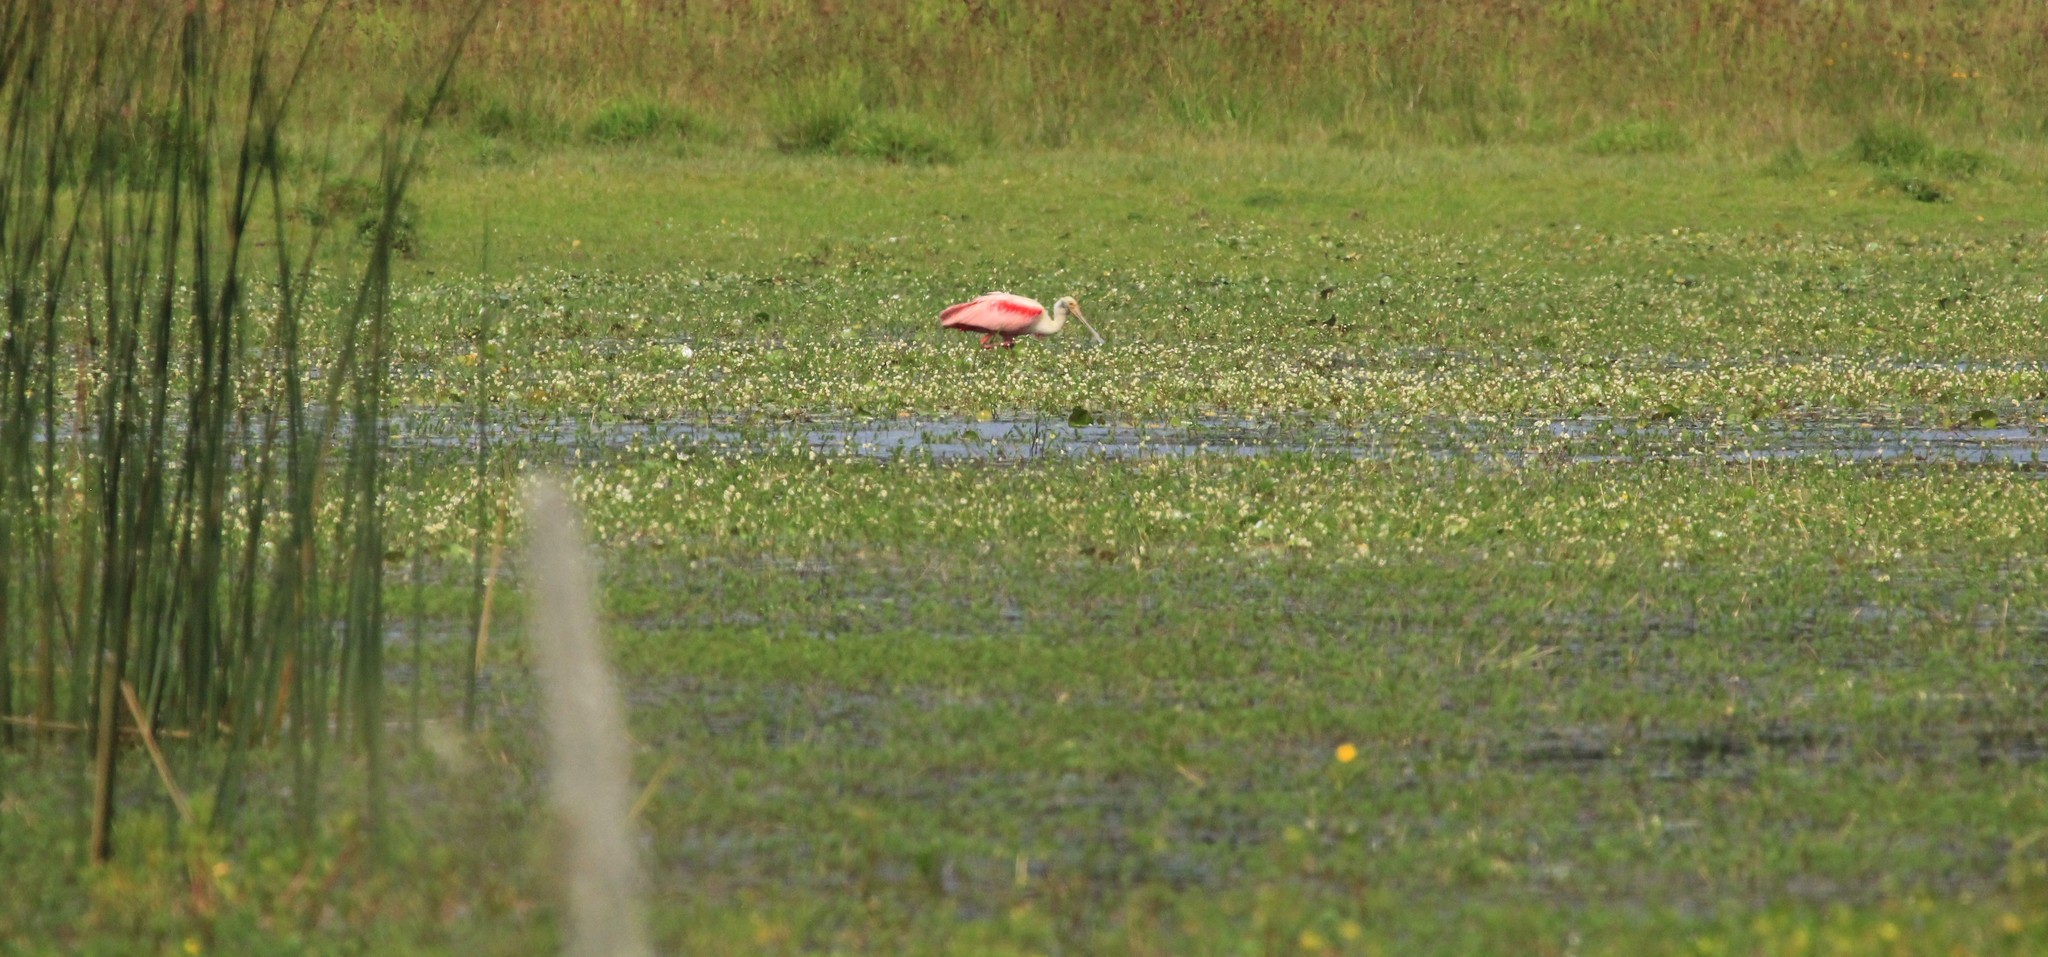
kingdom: Animalia
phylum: Chordata
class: Aves
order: Pelecaniformes
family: Threskiornithidae
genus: Platalea
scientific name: Platalea ajaja
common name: Roseate spoonbill
